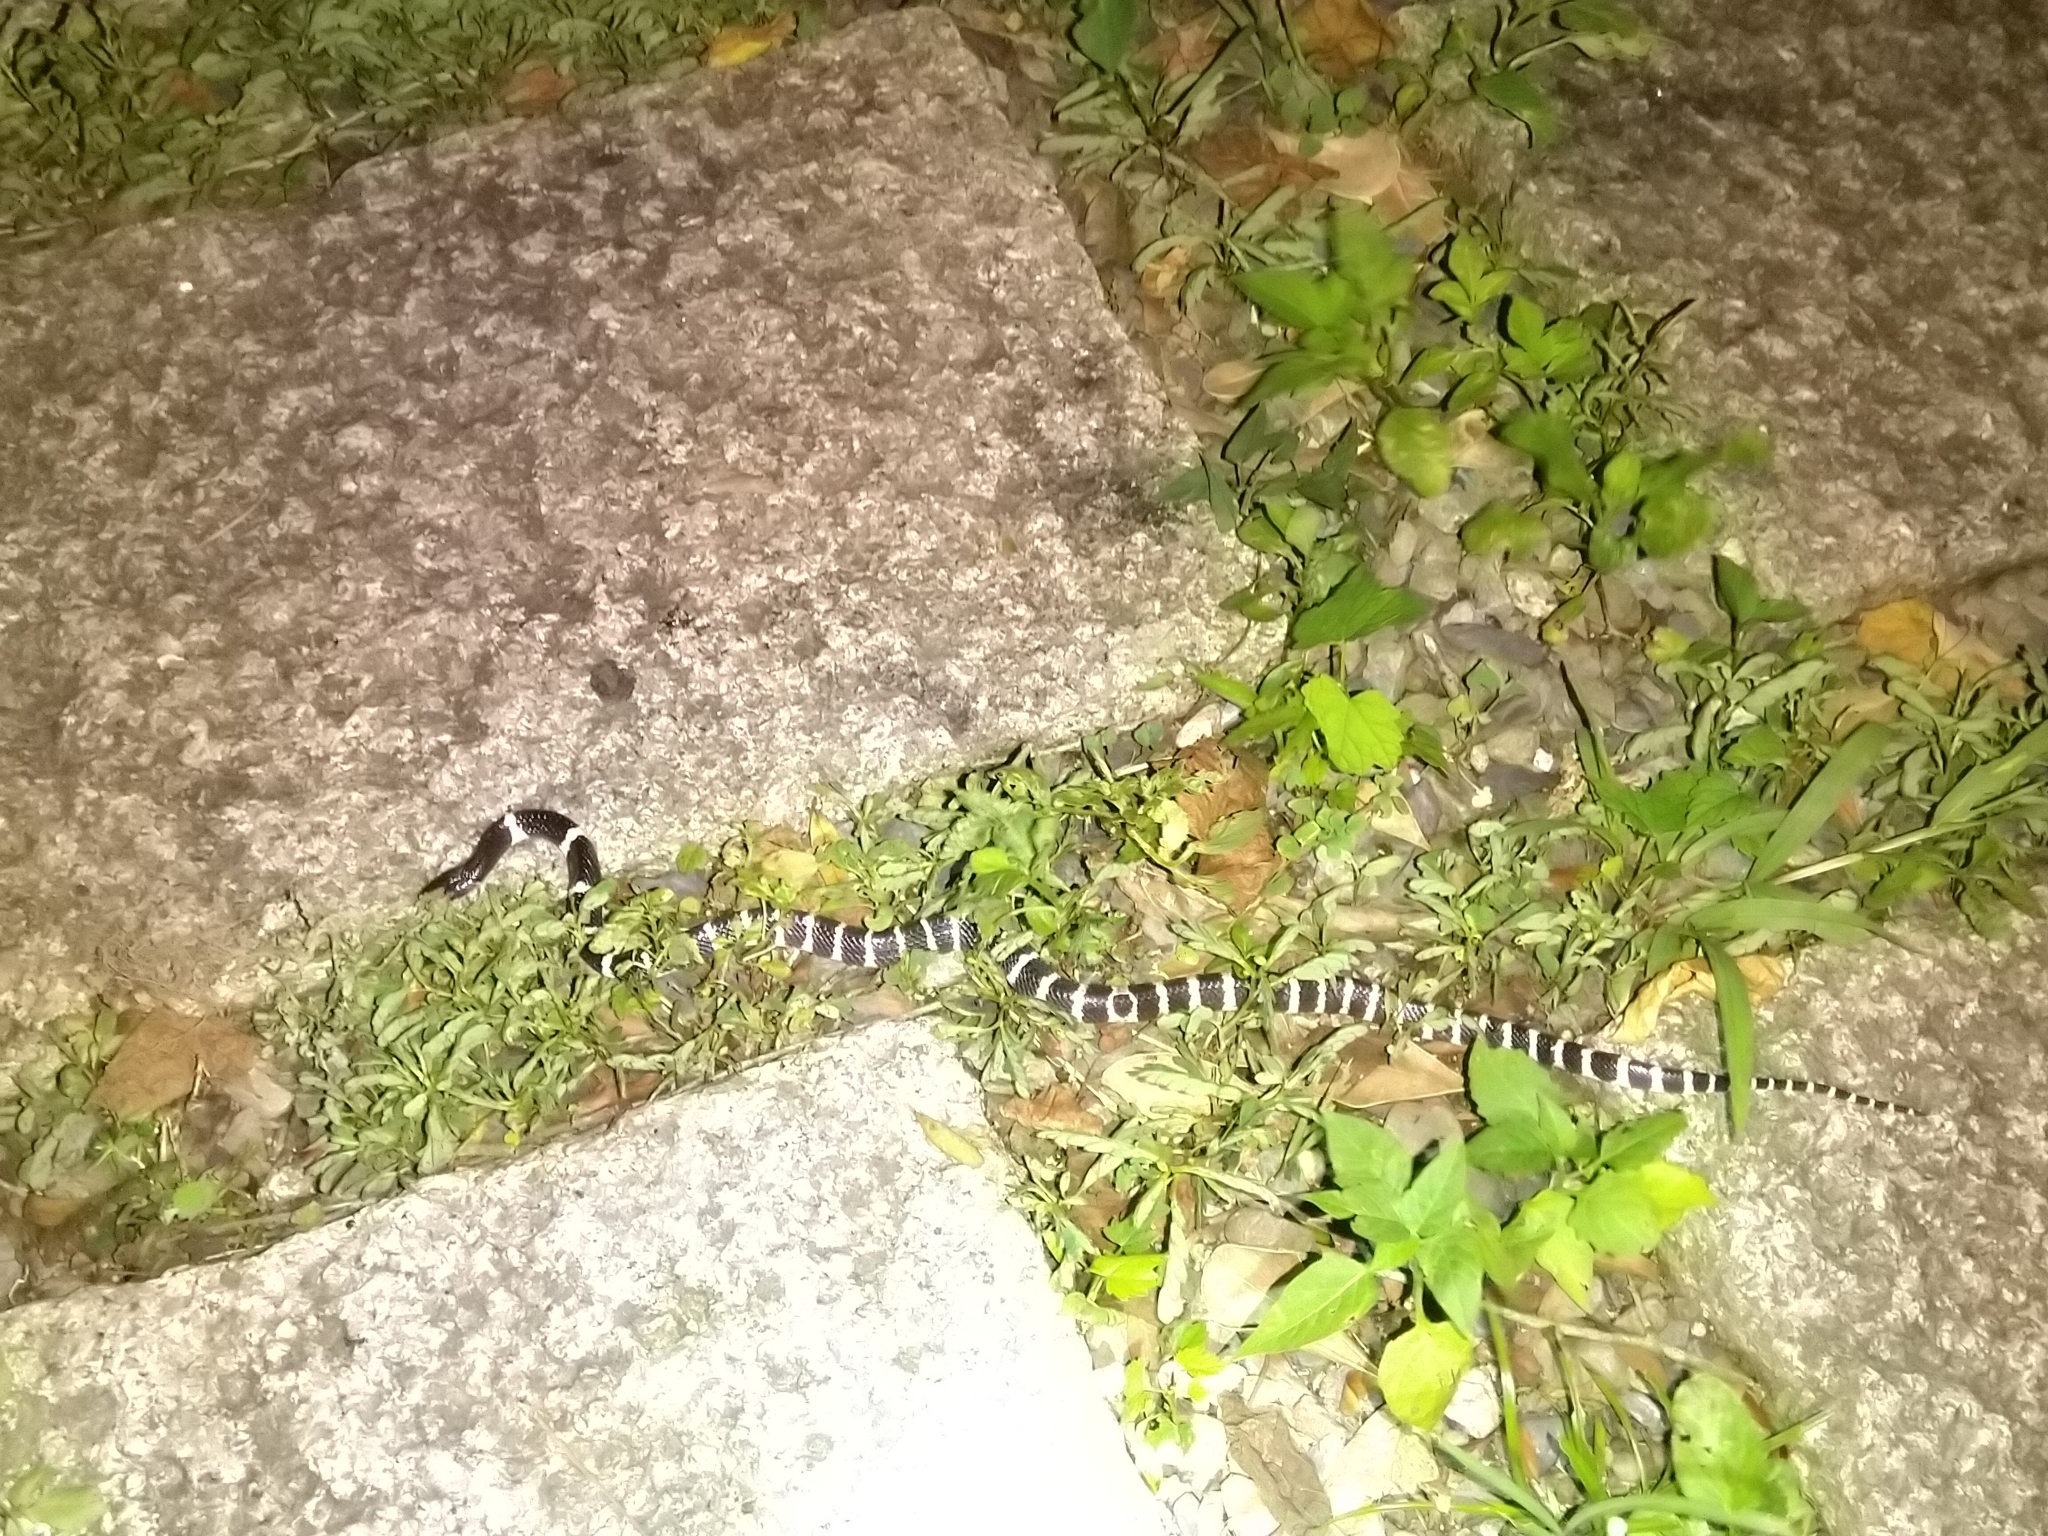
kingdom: Animalia
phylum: Chordata
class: Squamata
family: Elapidae
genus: Bungarus
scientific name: Bungarus multicinctus
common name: Many-banded krait
